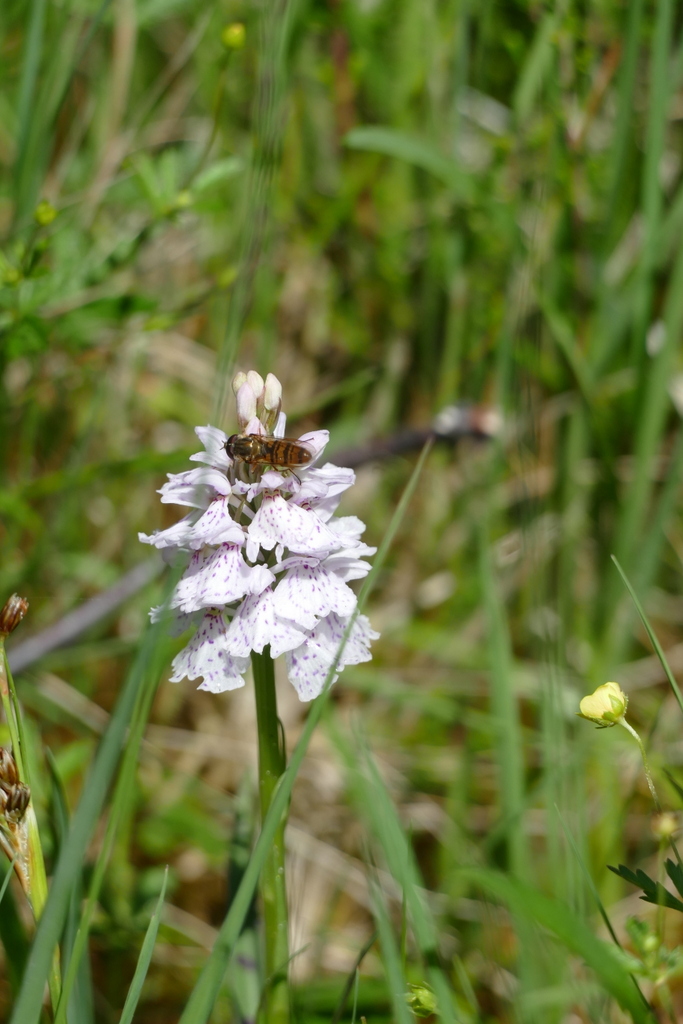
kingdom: Animalia
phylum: Arthropoda
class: Insecta
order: Diptera
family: Syrphidae
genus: Episyrphus
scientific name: Episyrphus balteatus
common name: Marmalade hoverfly
